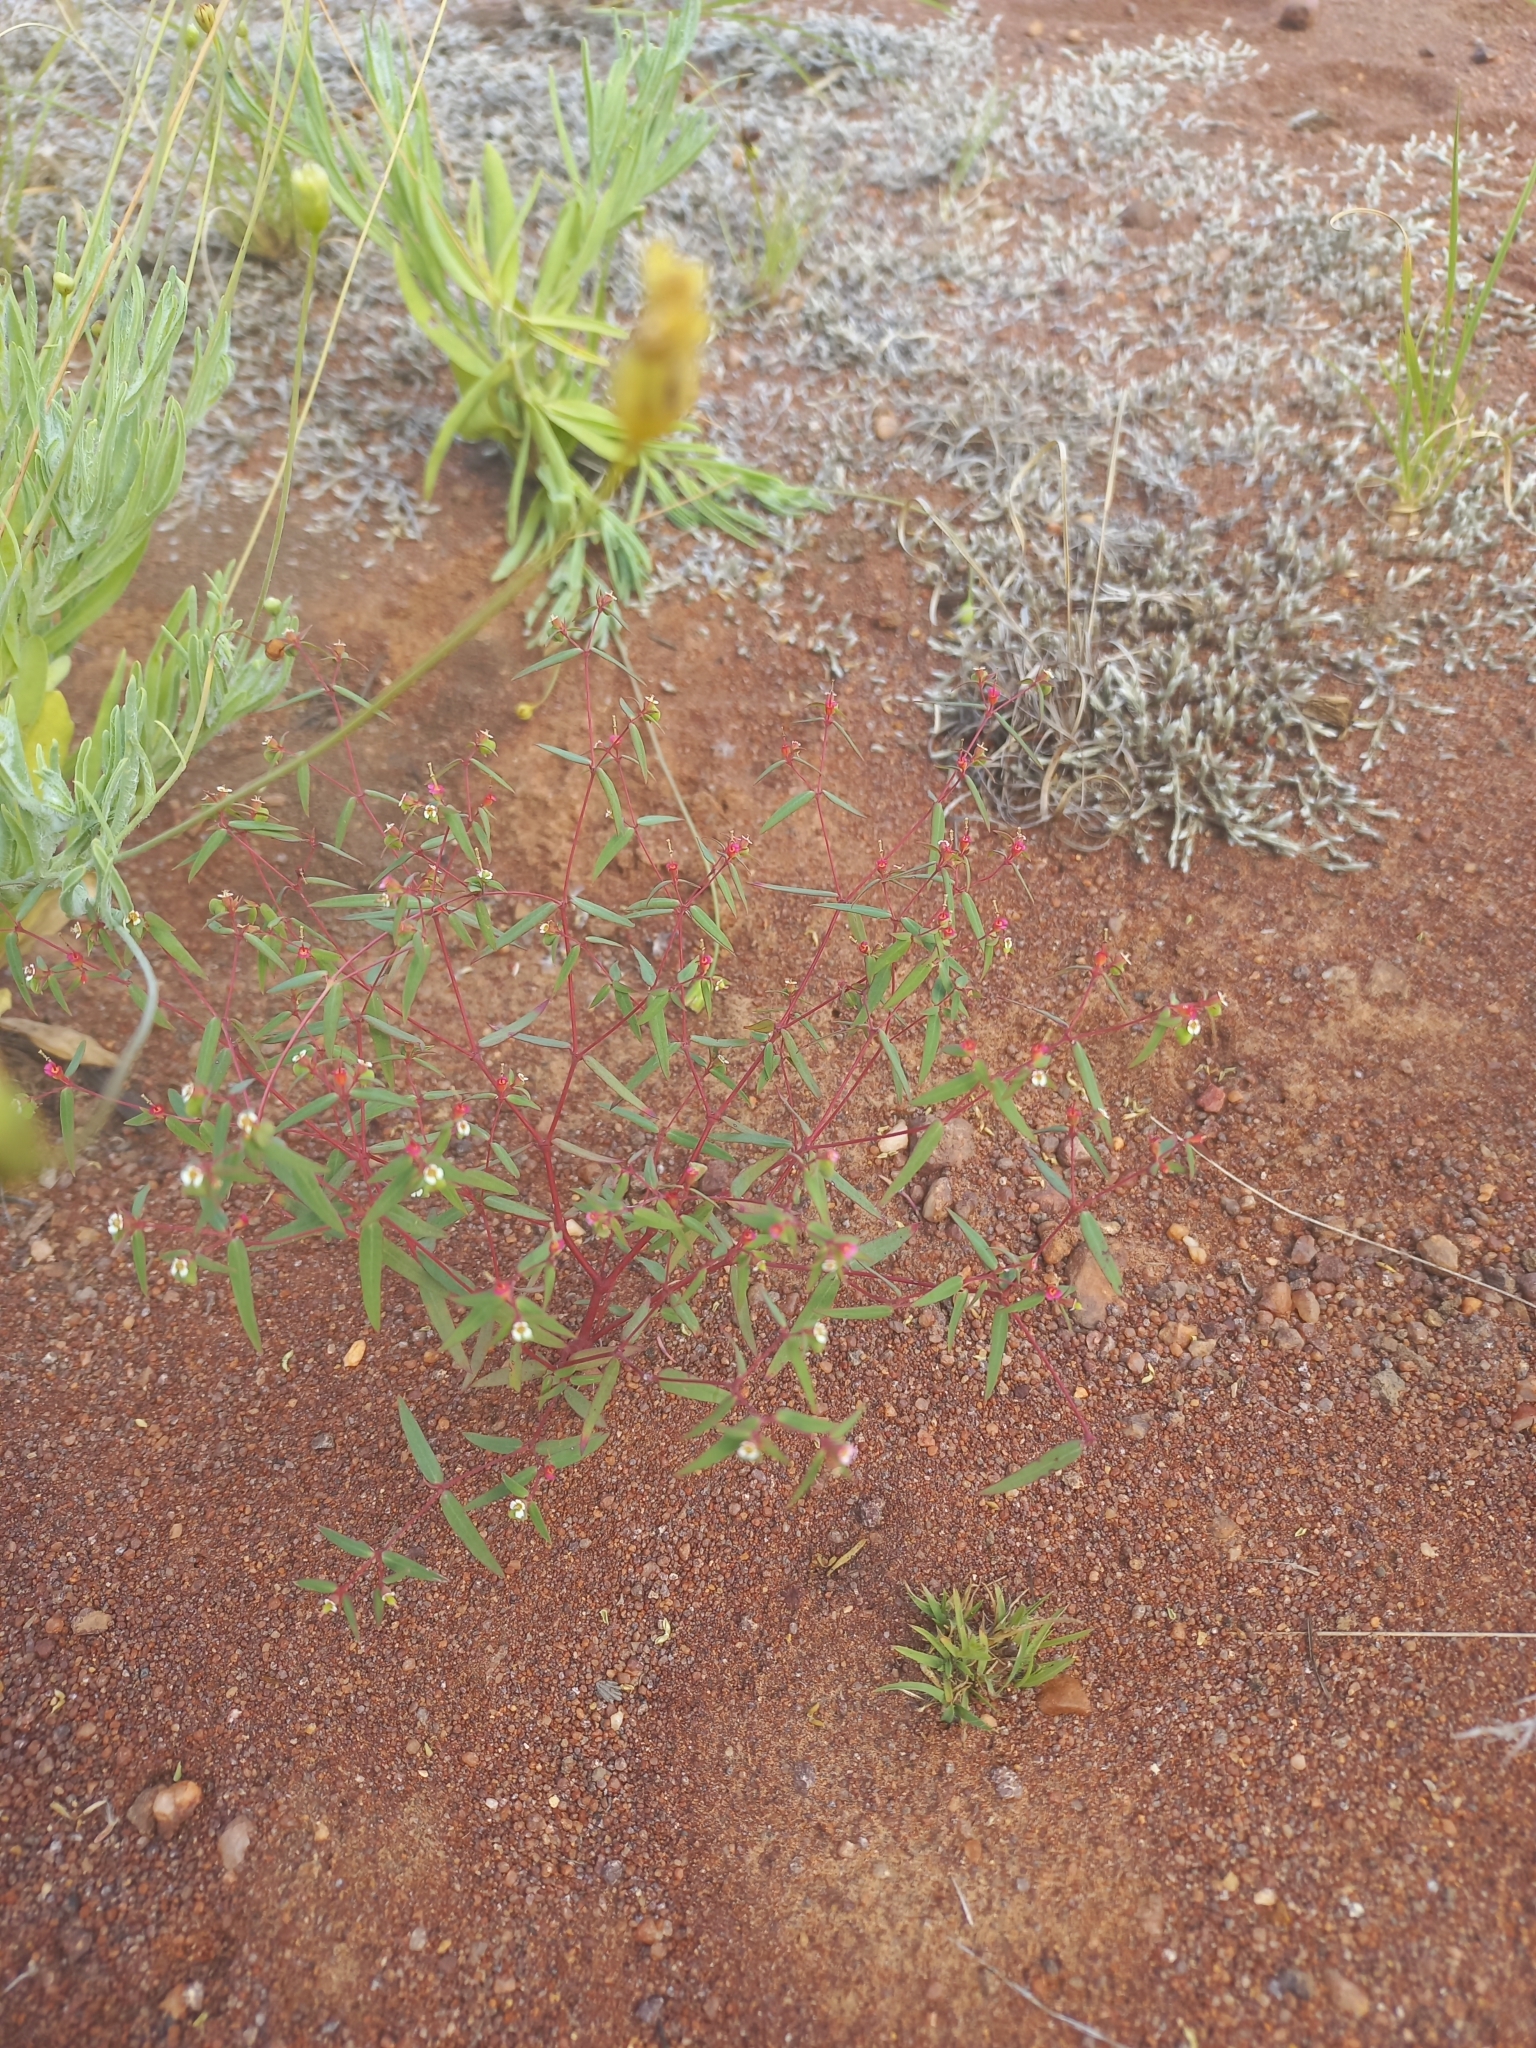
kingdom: Plantae
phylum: Tracheophyta
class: Magnoliopsida
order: Malpighiales
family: Euphorbiaceae
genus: Euphorbia
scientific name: Euphorbia neopolycnemoides
